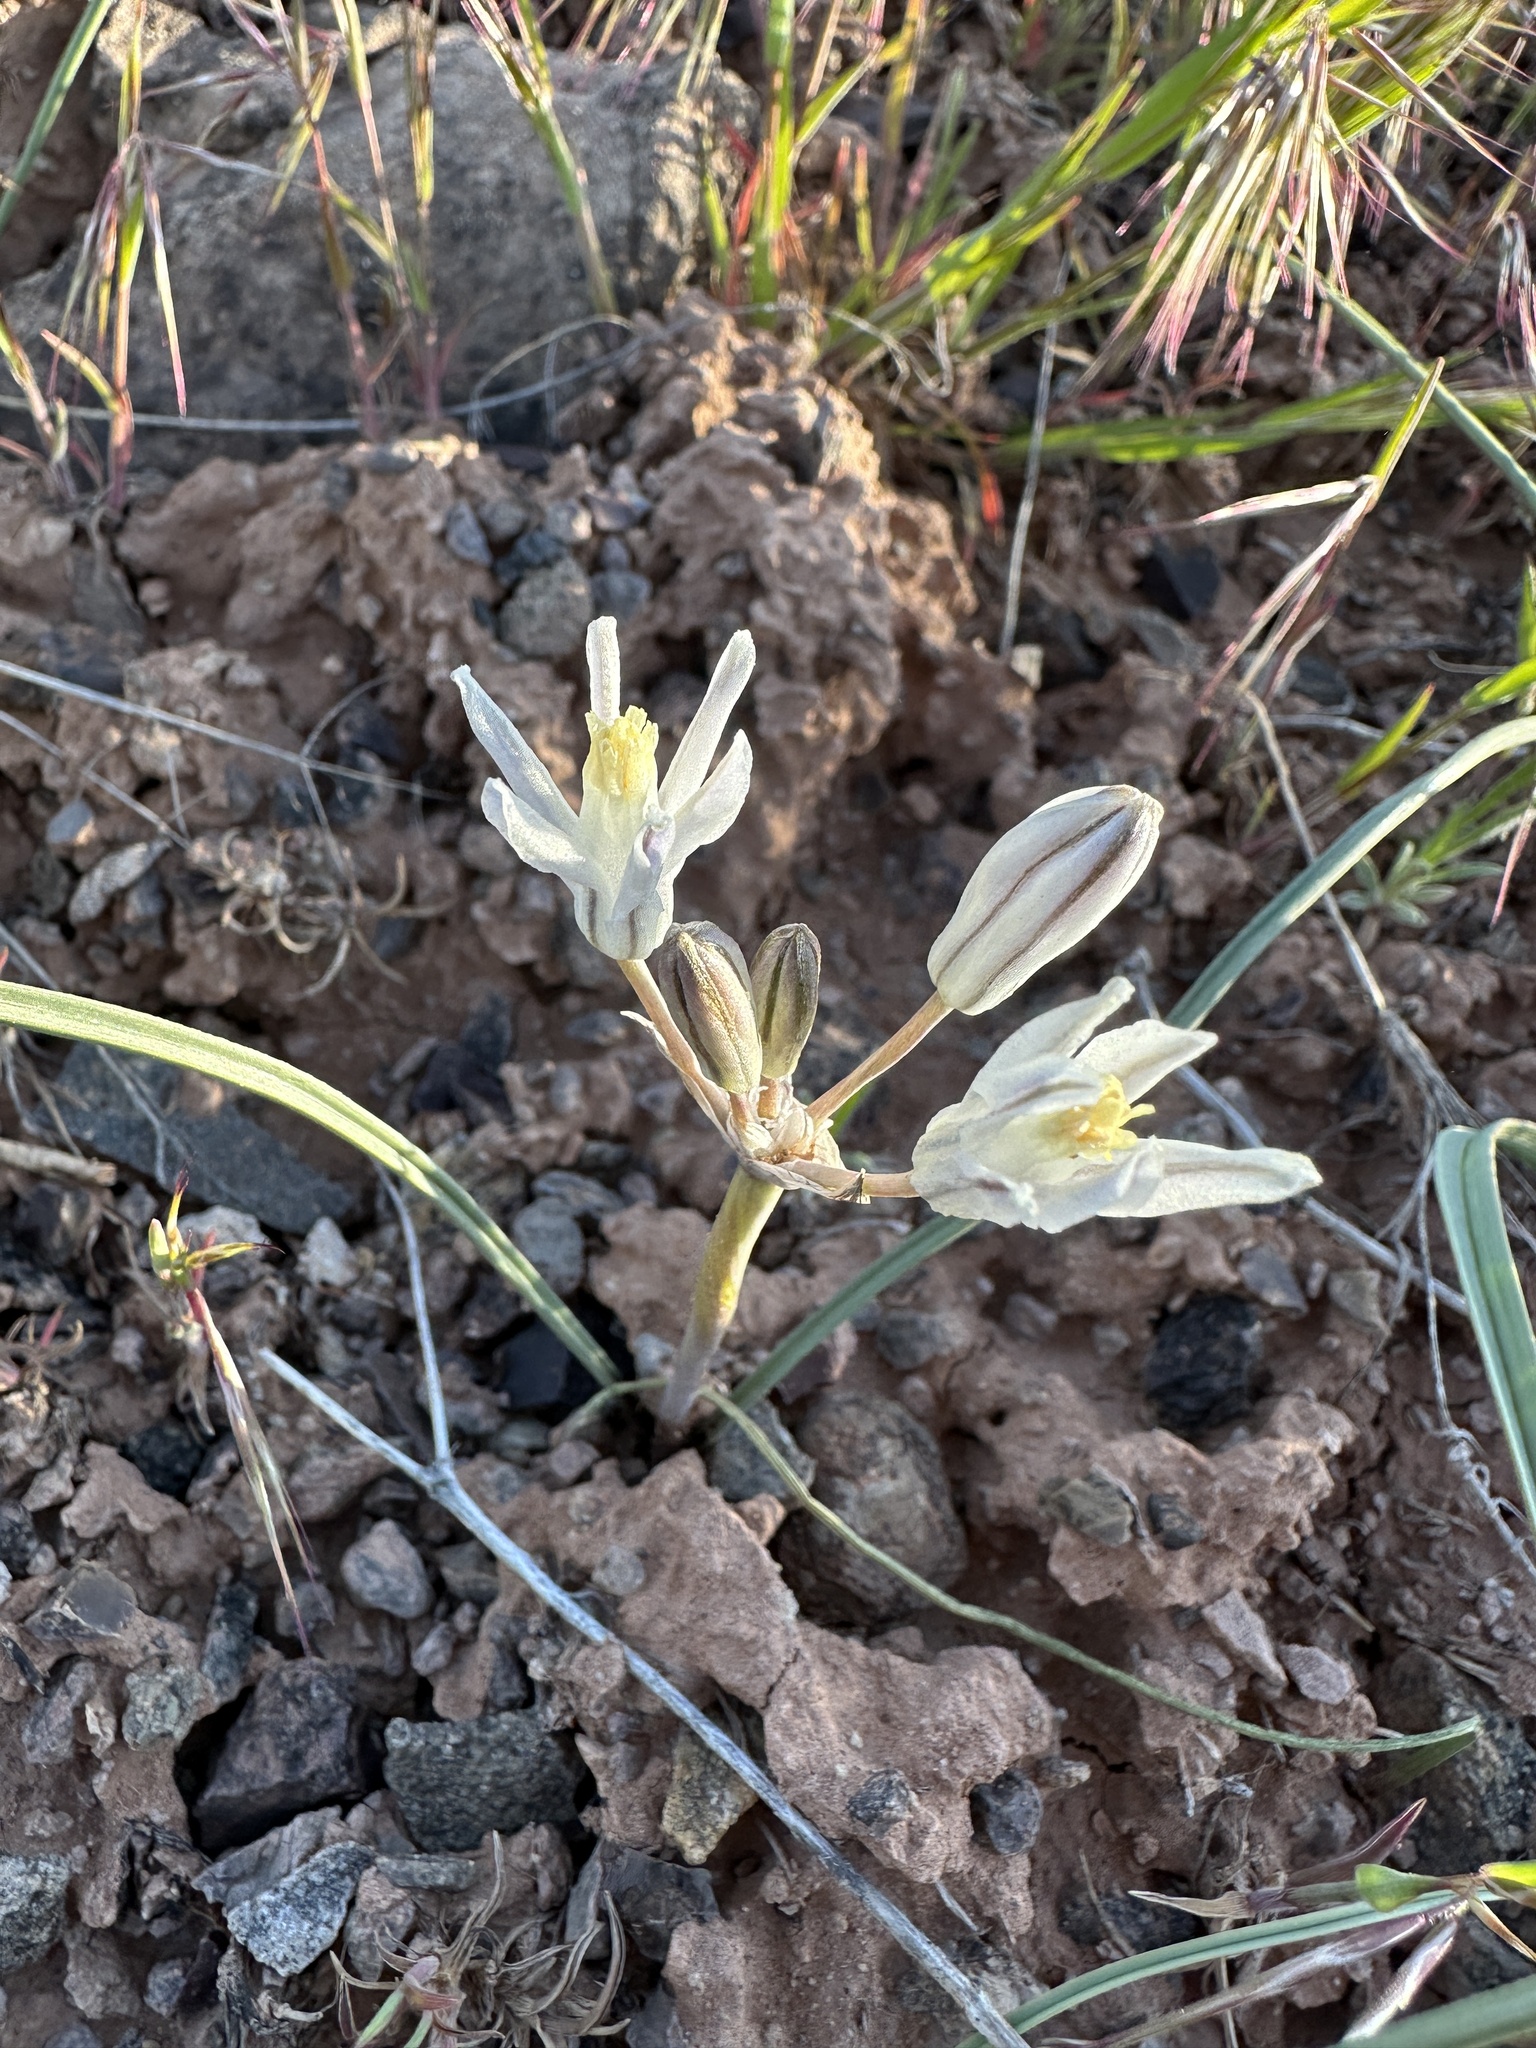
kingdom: Plantae
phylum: Tracheophyta
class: Liliopsida
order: Asparagales
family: Asparagaceae
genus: Androstephium
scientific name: Androstephium breviflorum
